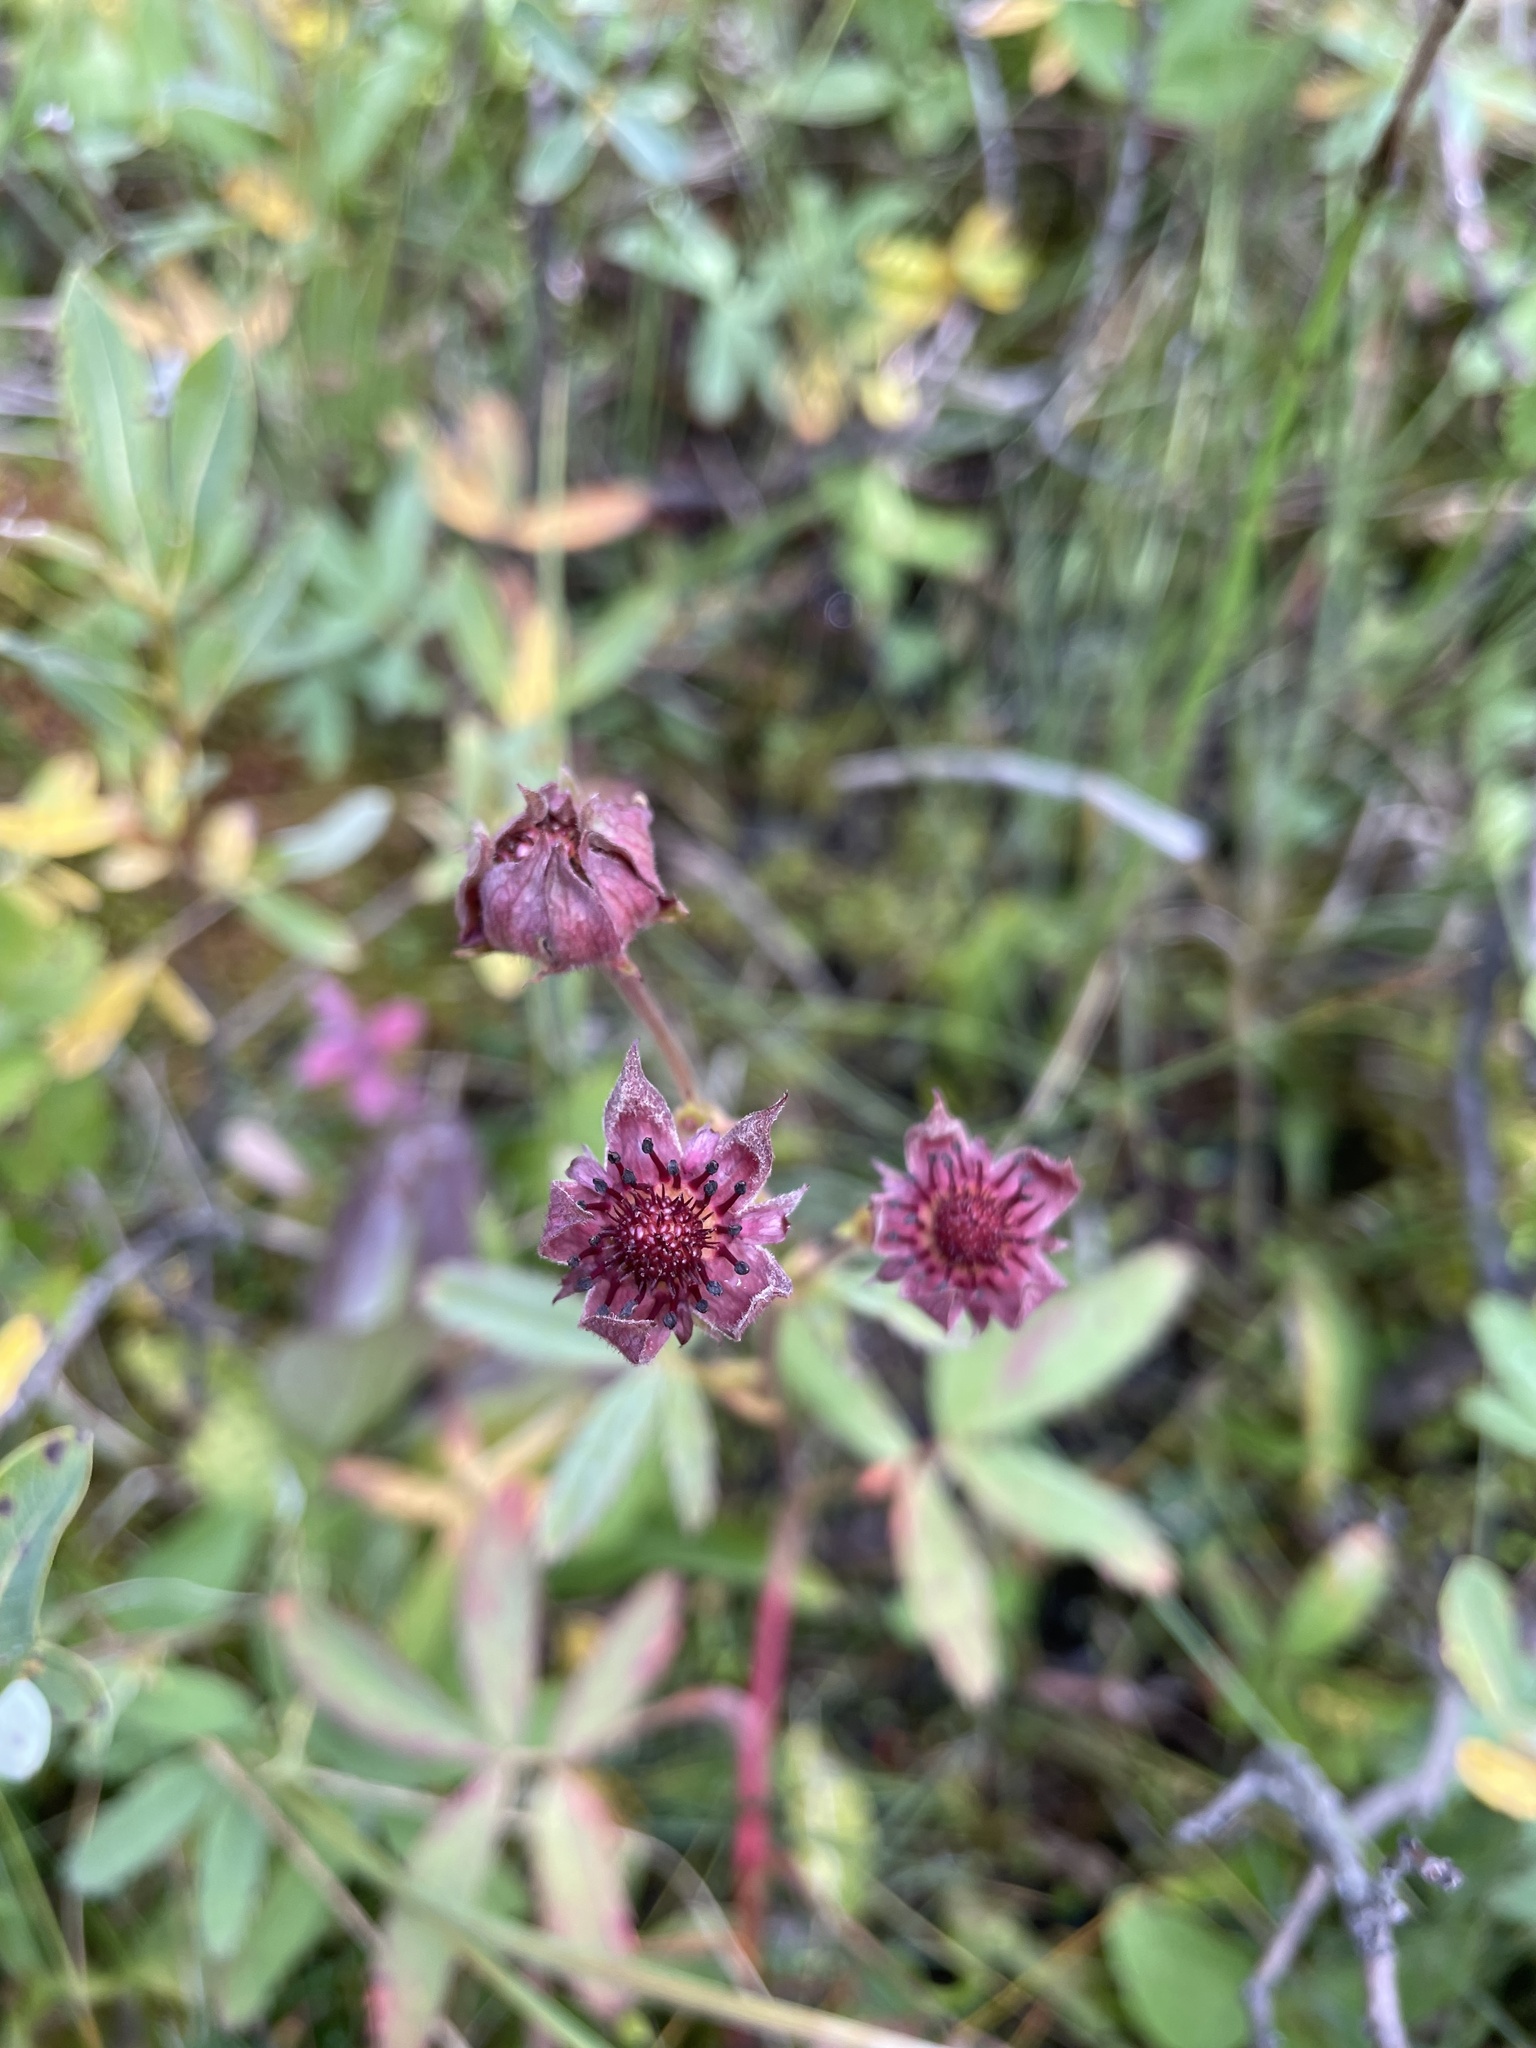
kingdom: Plantae
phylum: Tracheophyta
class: Magnoliopsida
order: Rosales
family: Rosaceae
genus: Comarum
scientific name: Comarum palustre
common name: Marsh cinquefoil
